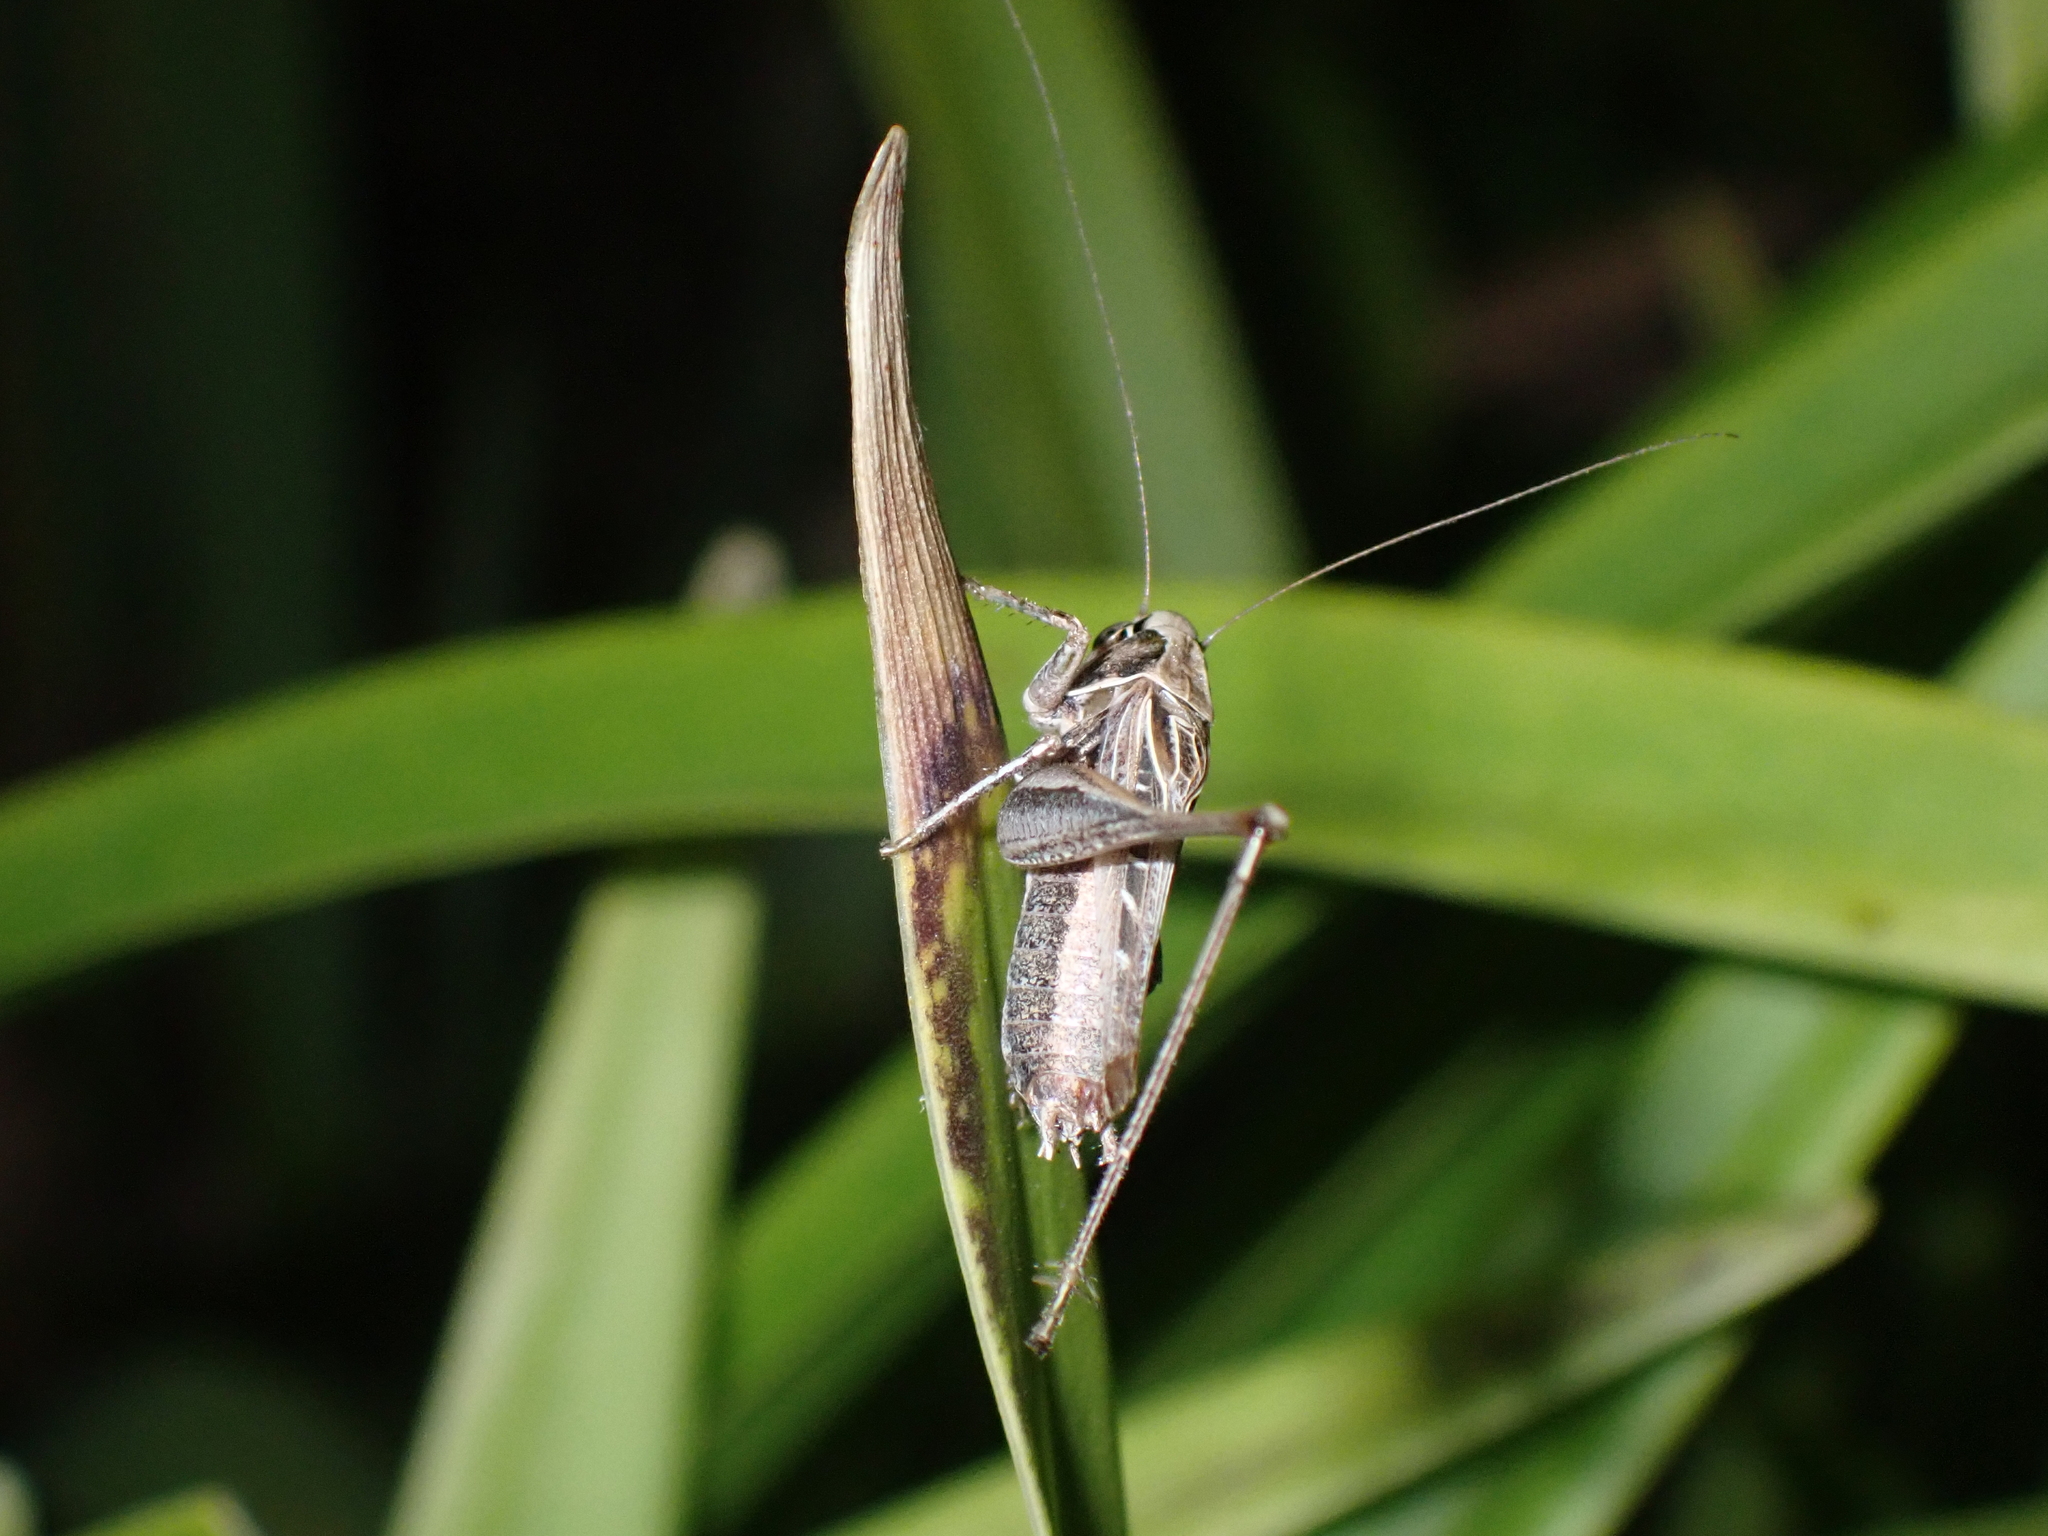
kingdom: Animalia
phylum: Arthropoda
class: Insecta
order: Orthoptera
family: Tettigoniidae
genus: Tessellana
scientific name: Tessellana tessellata
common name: Grasshopper
